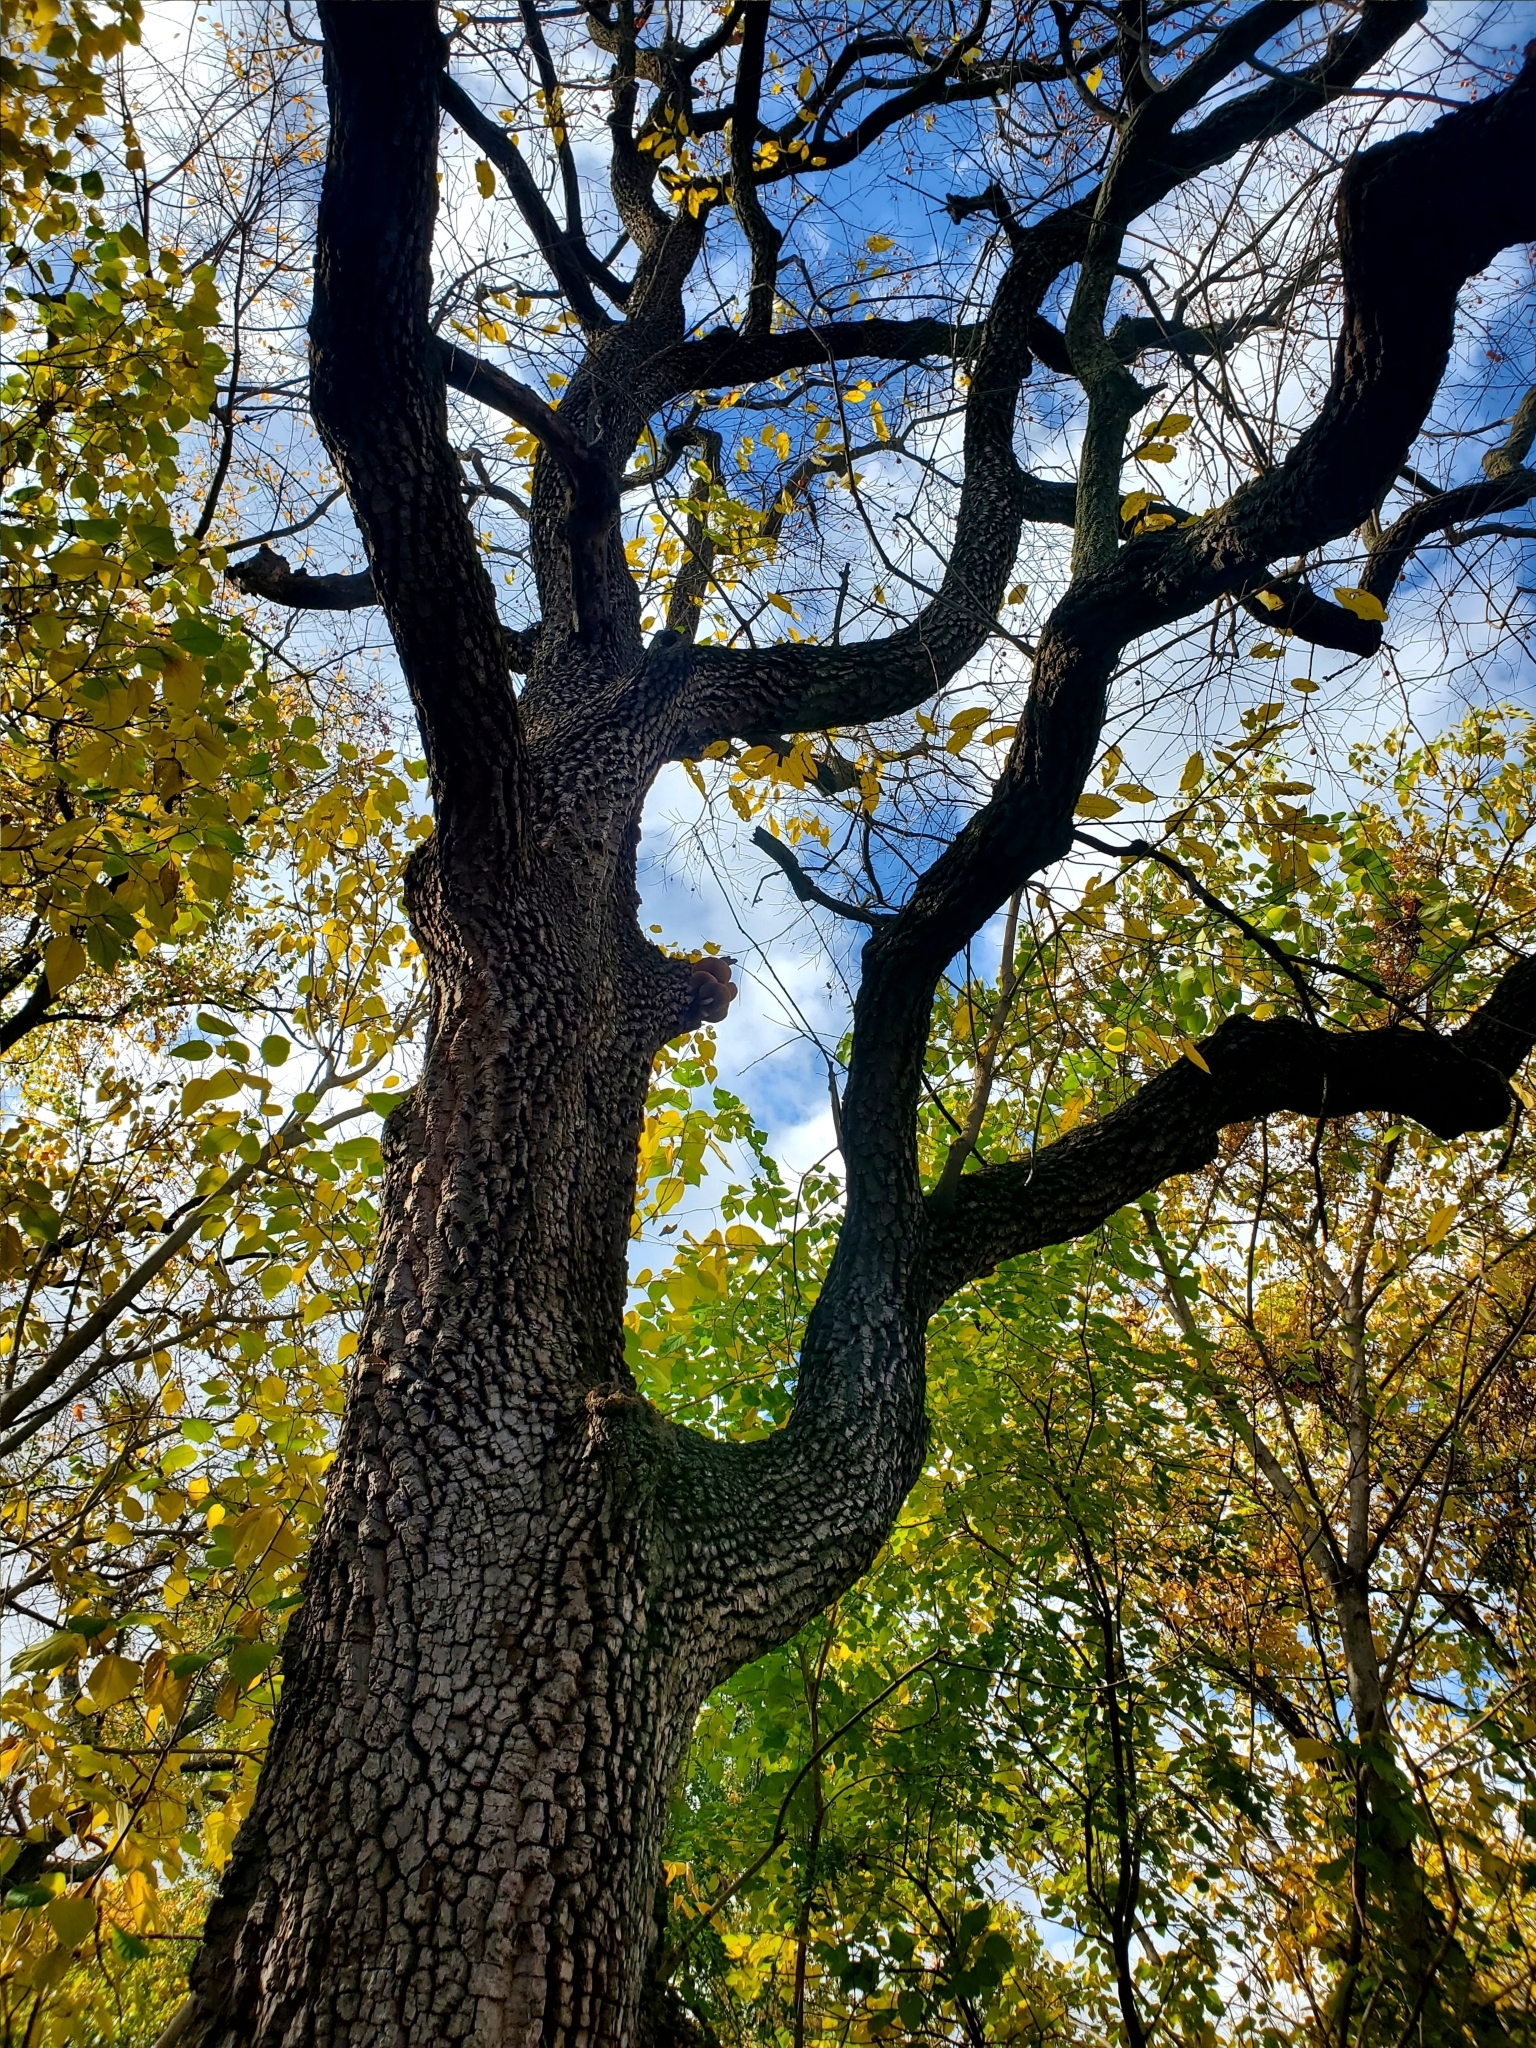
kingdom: Plantae
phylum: Tracheophyta
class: Magnoliopsida
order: Ericales
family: Ebenaceae
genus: Diospyros
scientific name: Diospyros virginiana
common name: Persimmon
